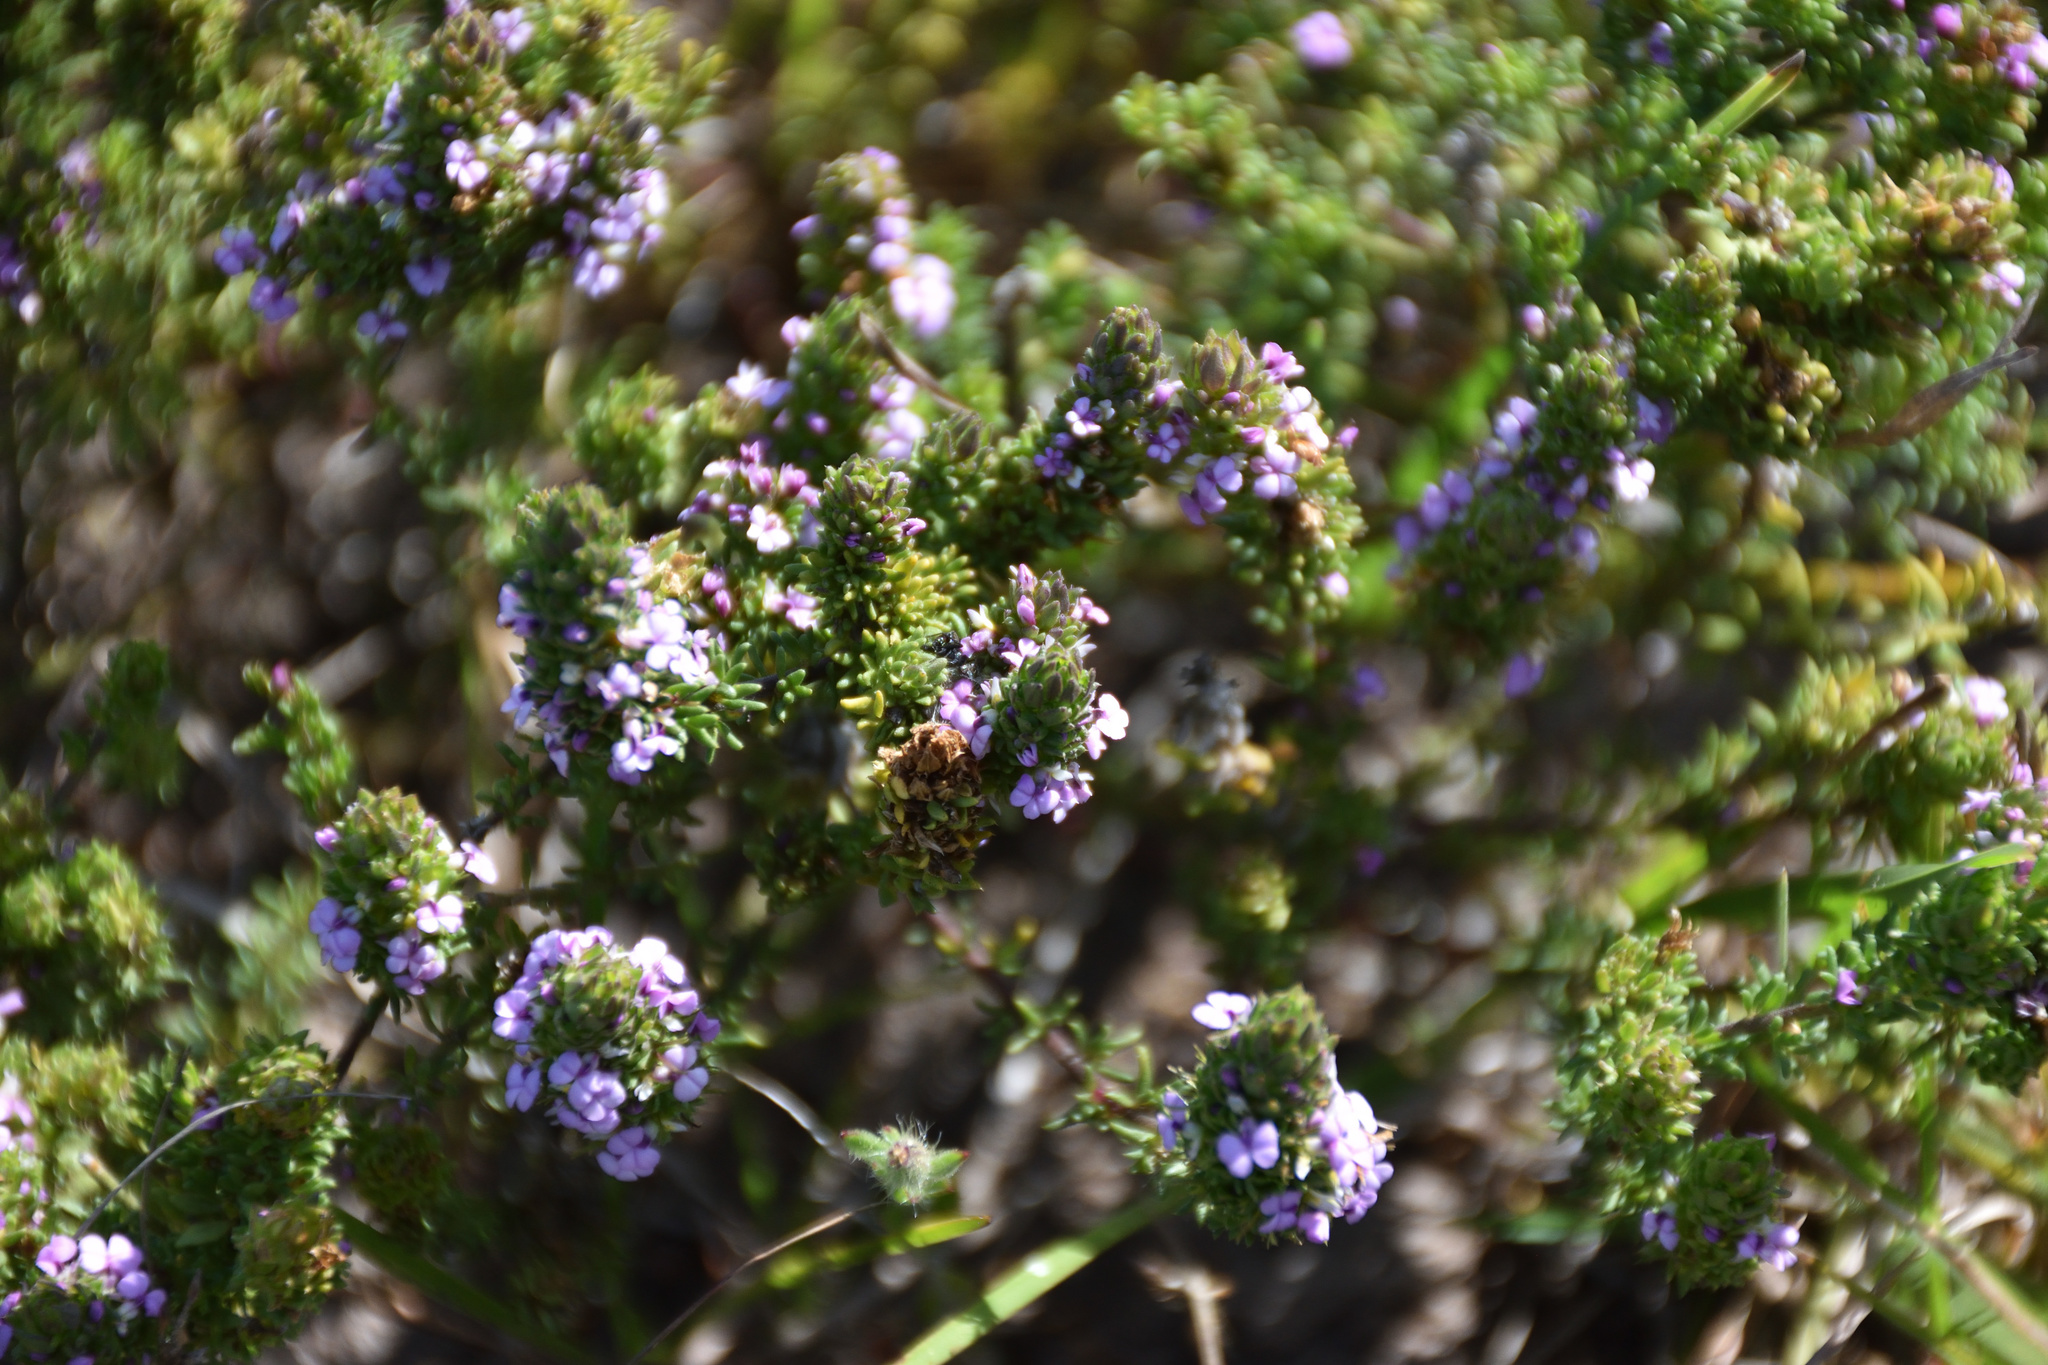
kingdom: Plantae
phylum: Tracheophyta
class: Magnoliopsida
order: Fabales
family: Polygalaceae
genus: Muraltia
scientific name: Muraltia alopecuroides
